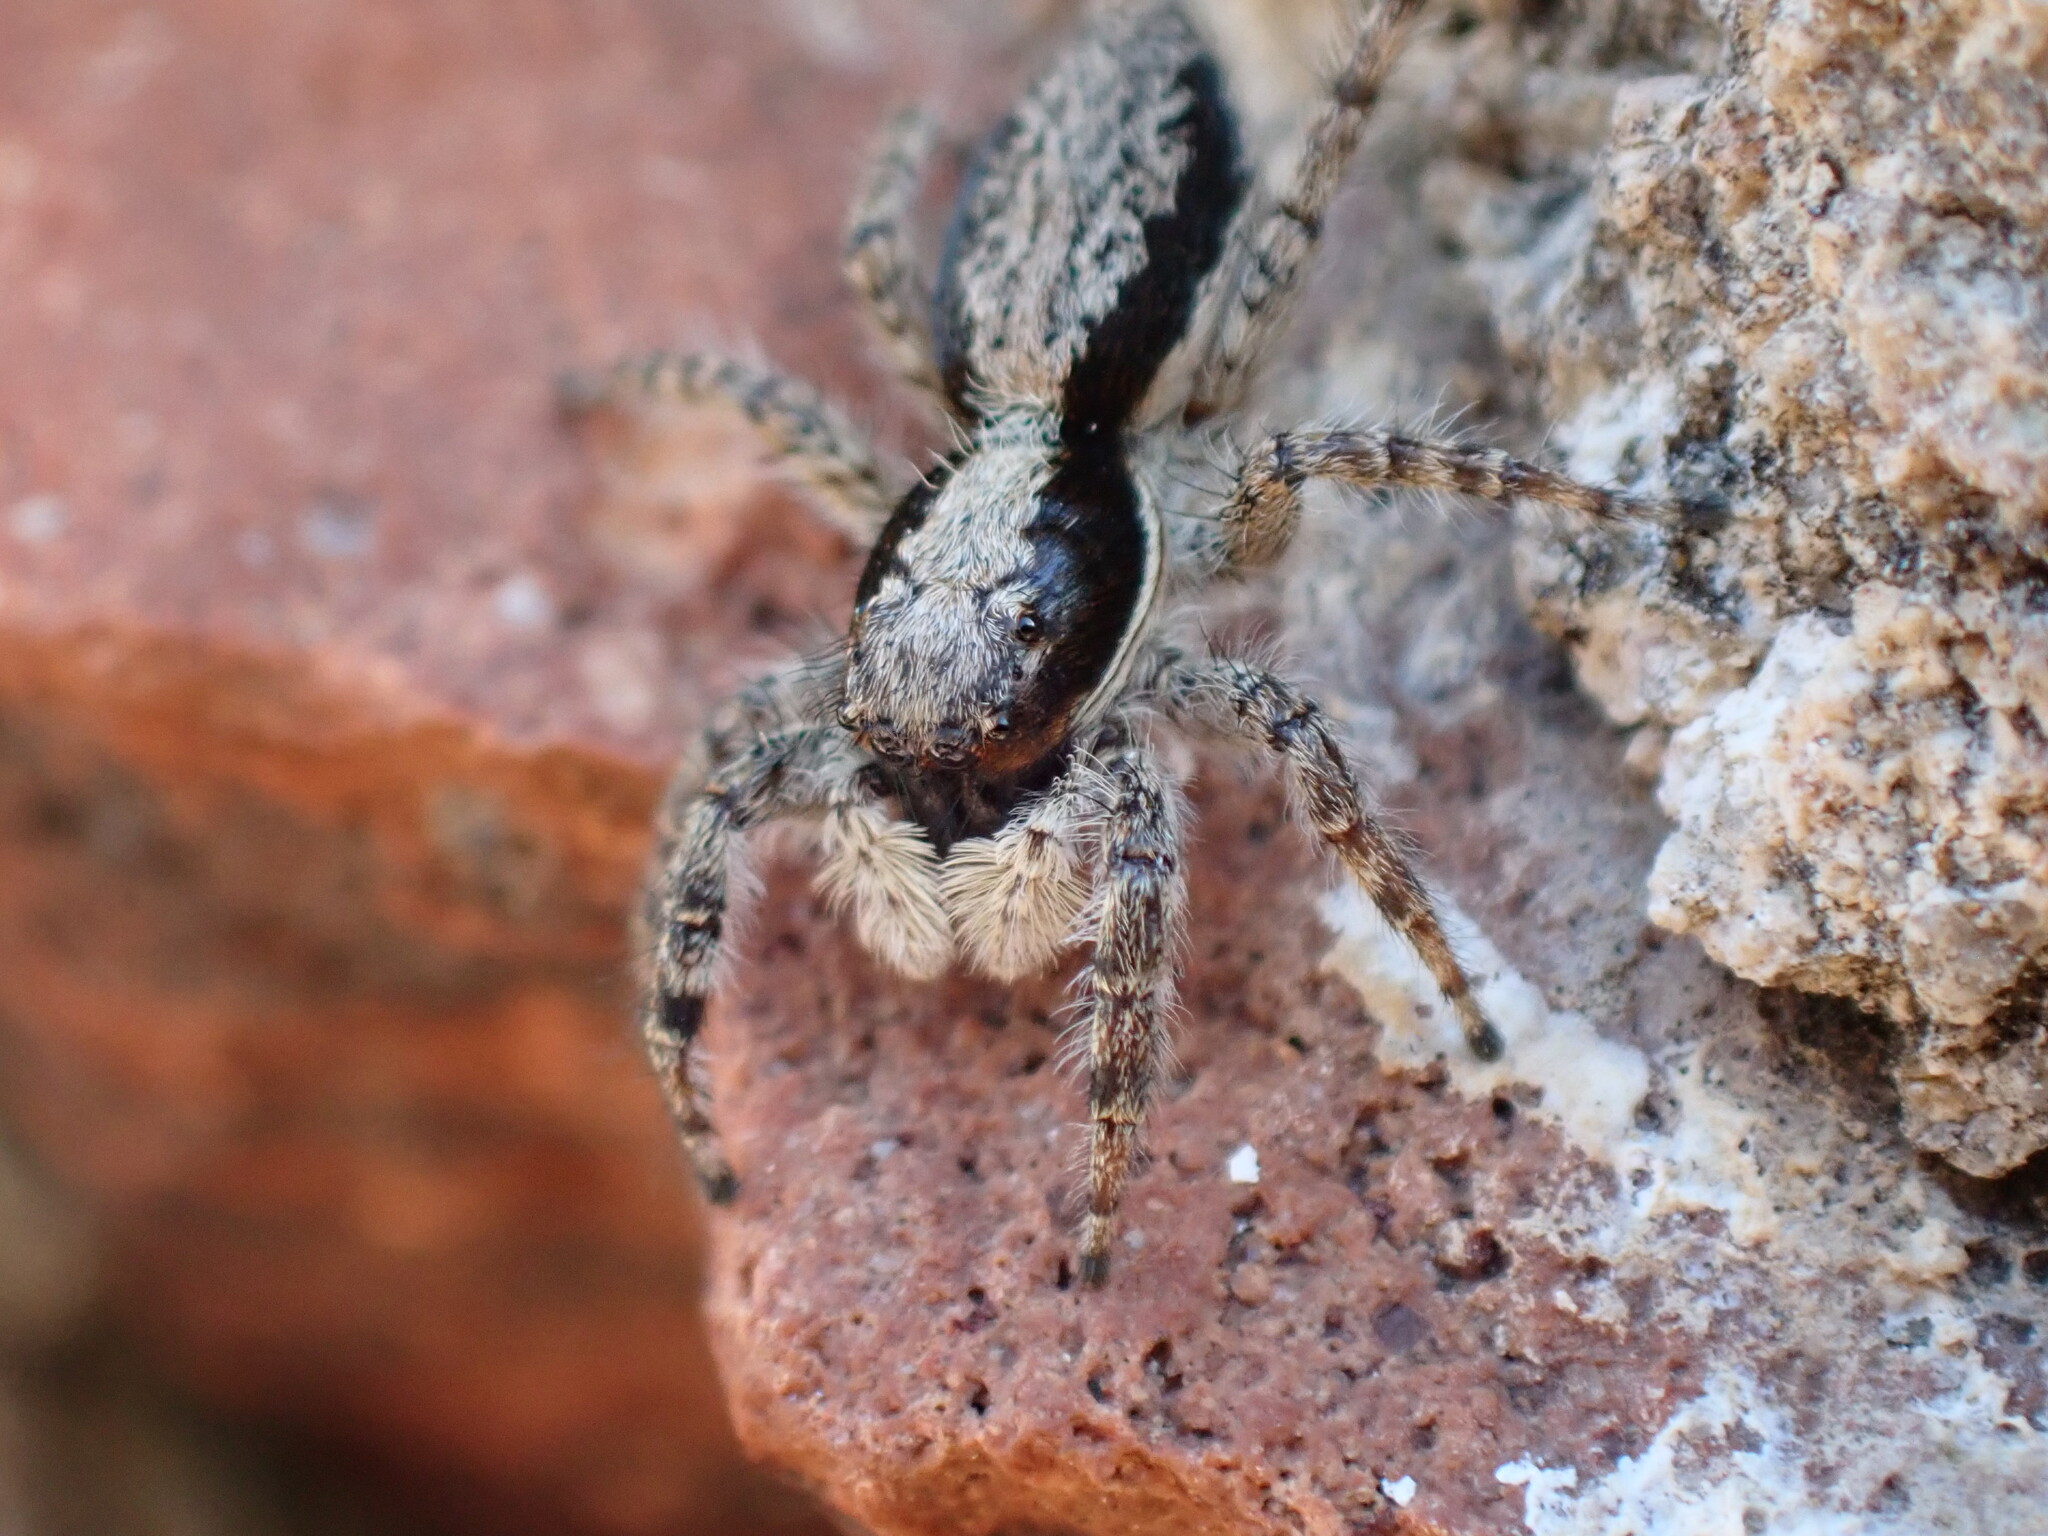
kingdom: Animalia
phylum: Arthropoda
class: Arachnida
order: Araneae
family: Salticidae
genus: Menemerus
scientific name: Menemerus taeniatus
